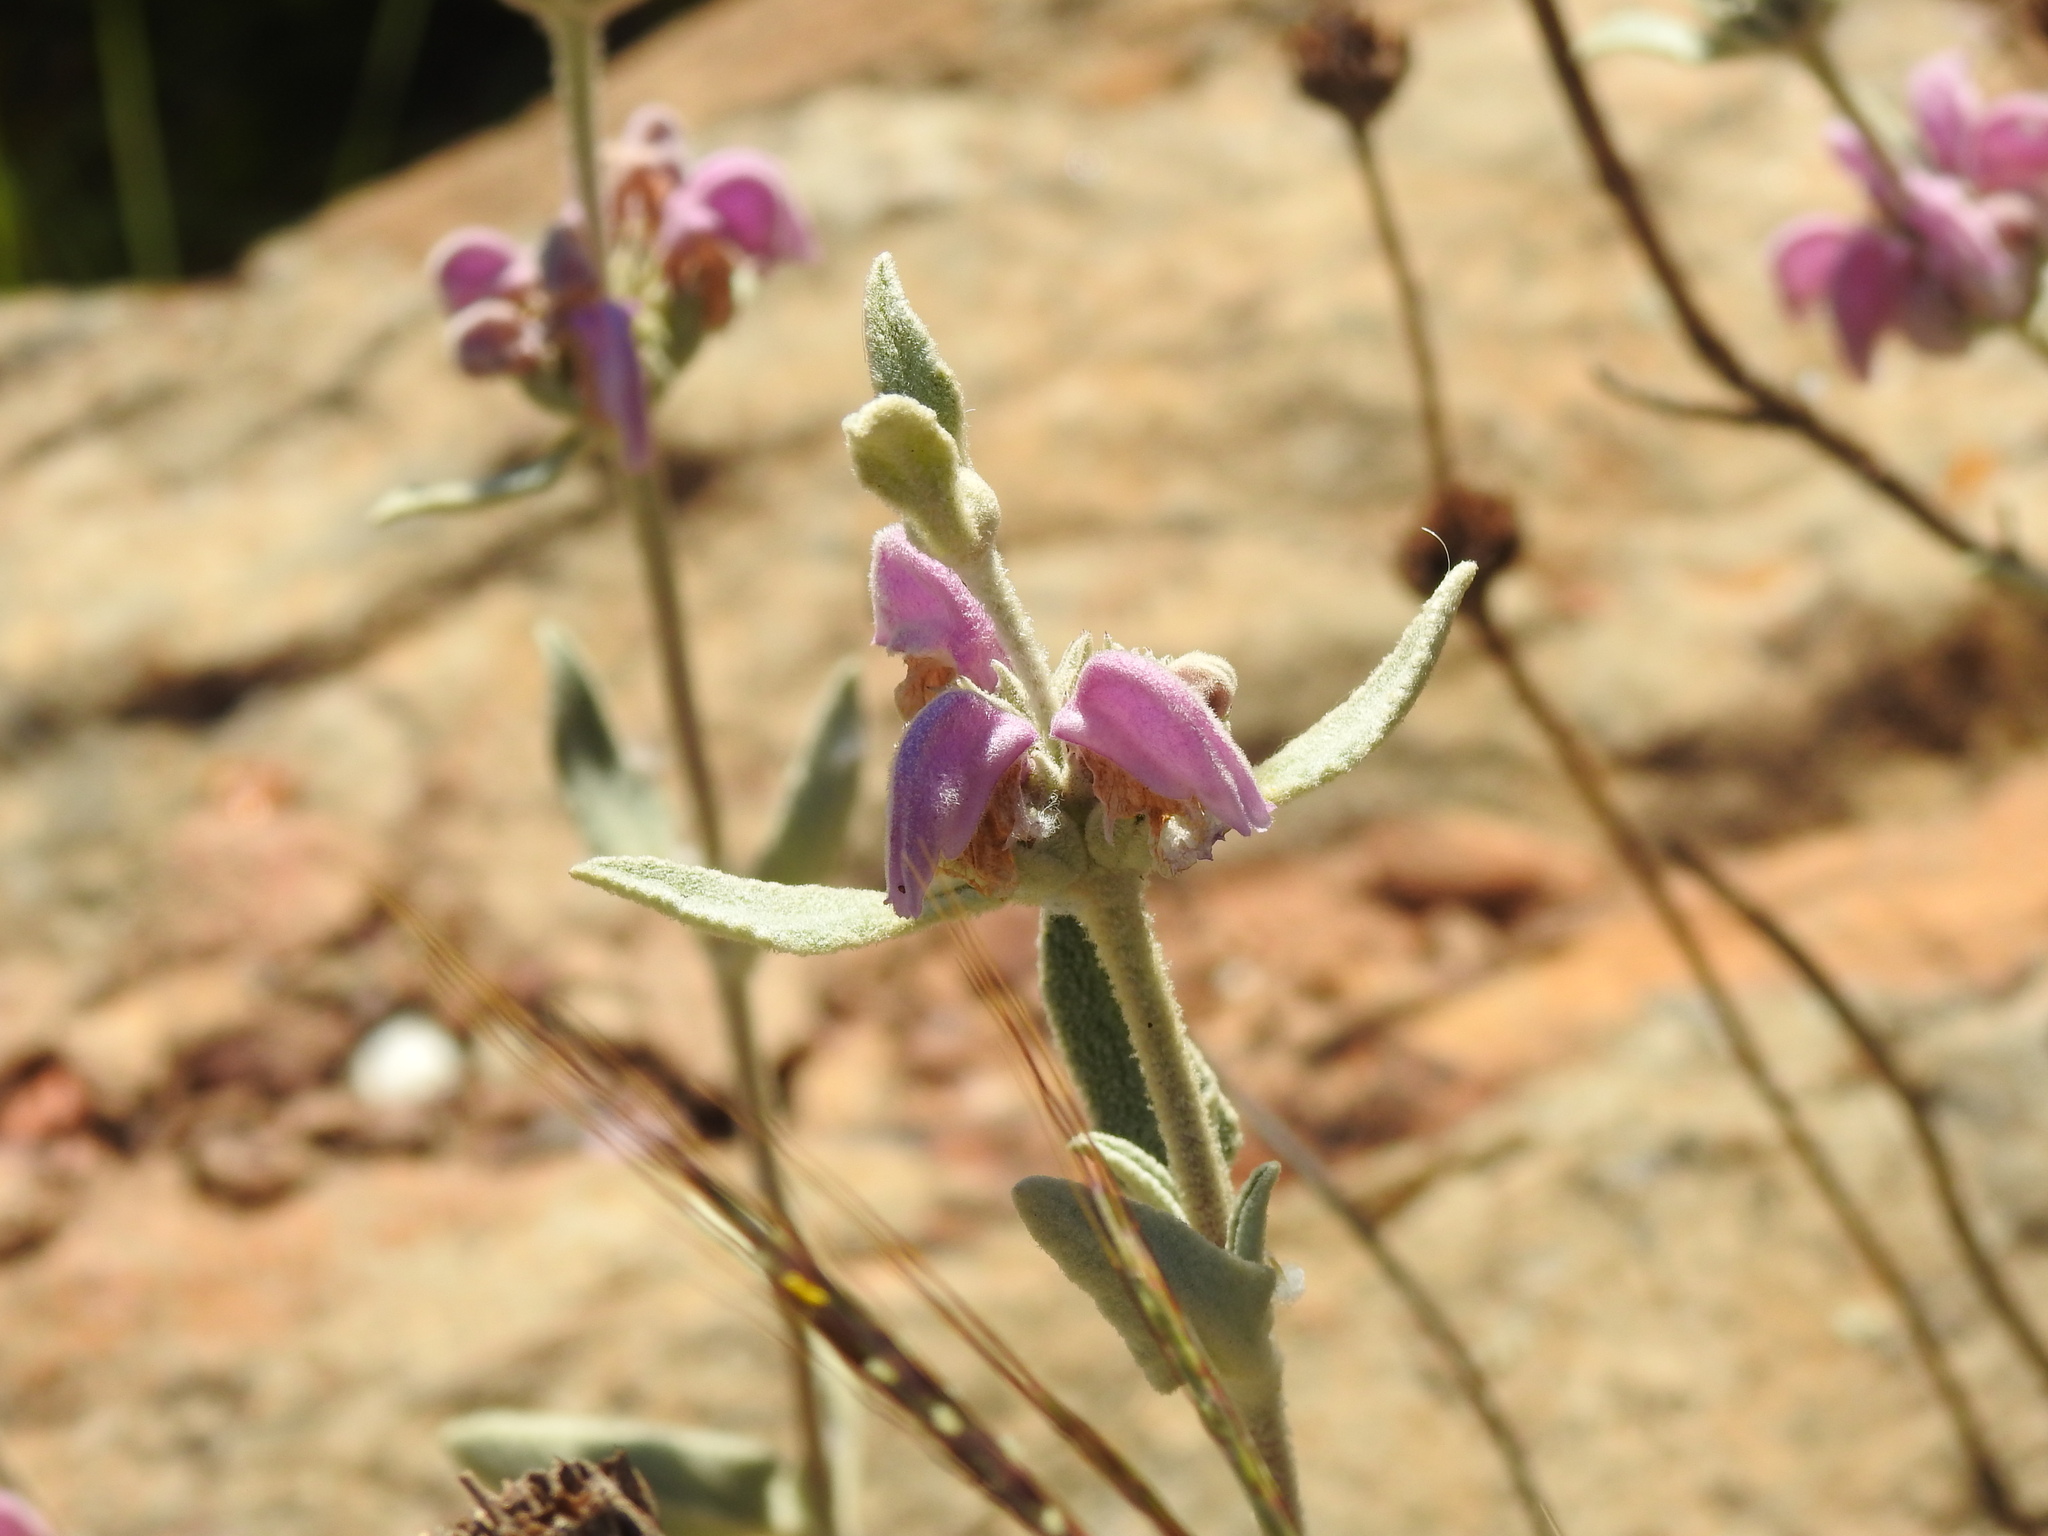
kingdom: Plantae
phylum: Tracheophyta
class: Magnoliopsida
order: Lamiales
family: Lamiaceae
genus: Phlomis
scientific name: Phlomis purpurea
